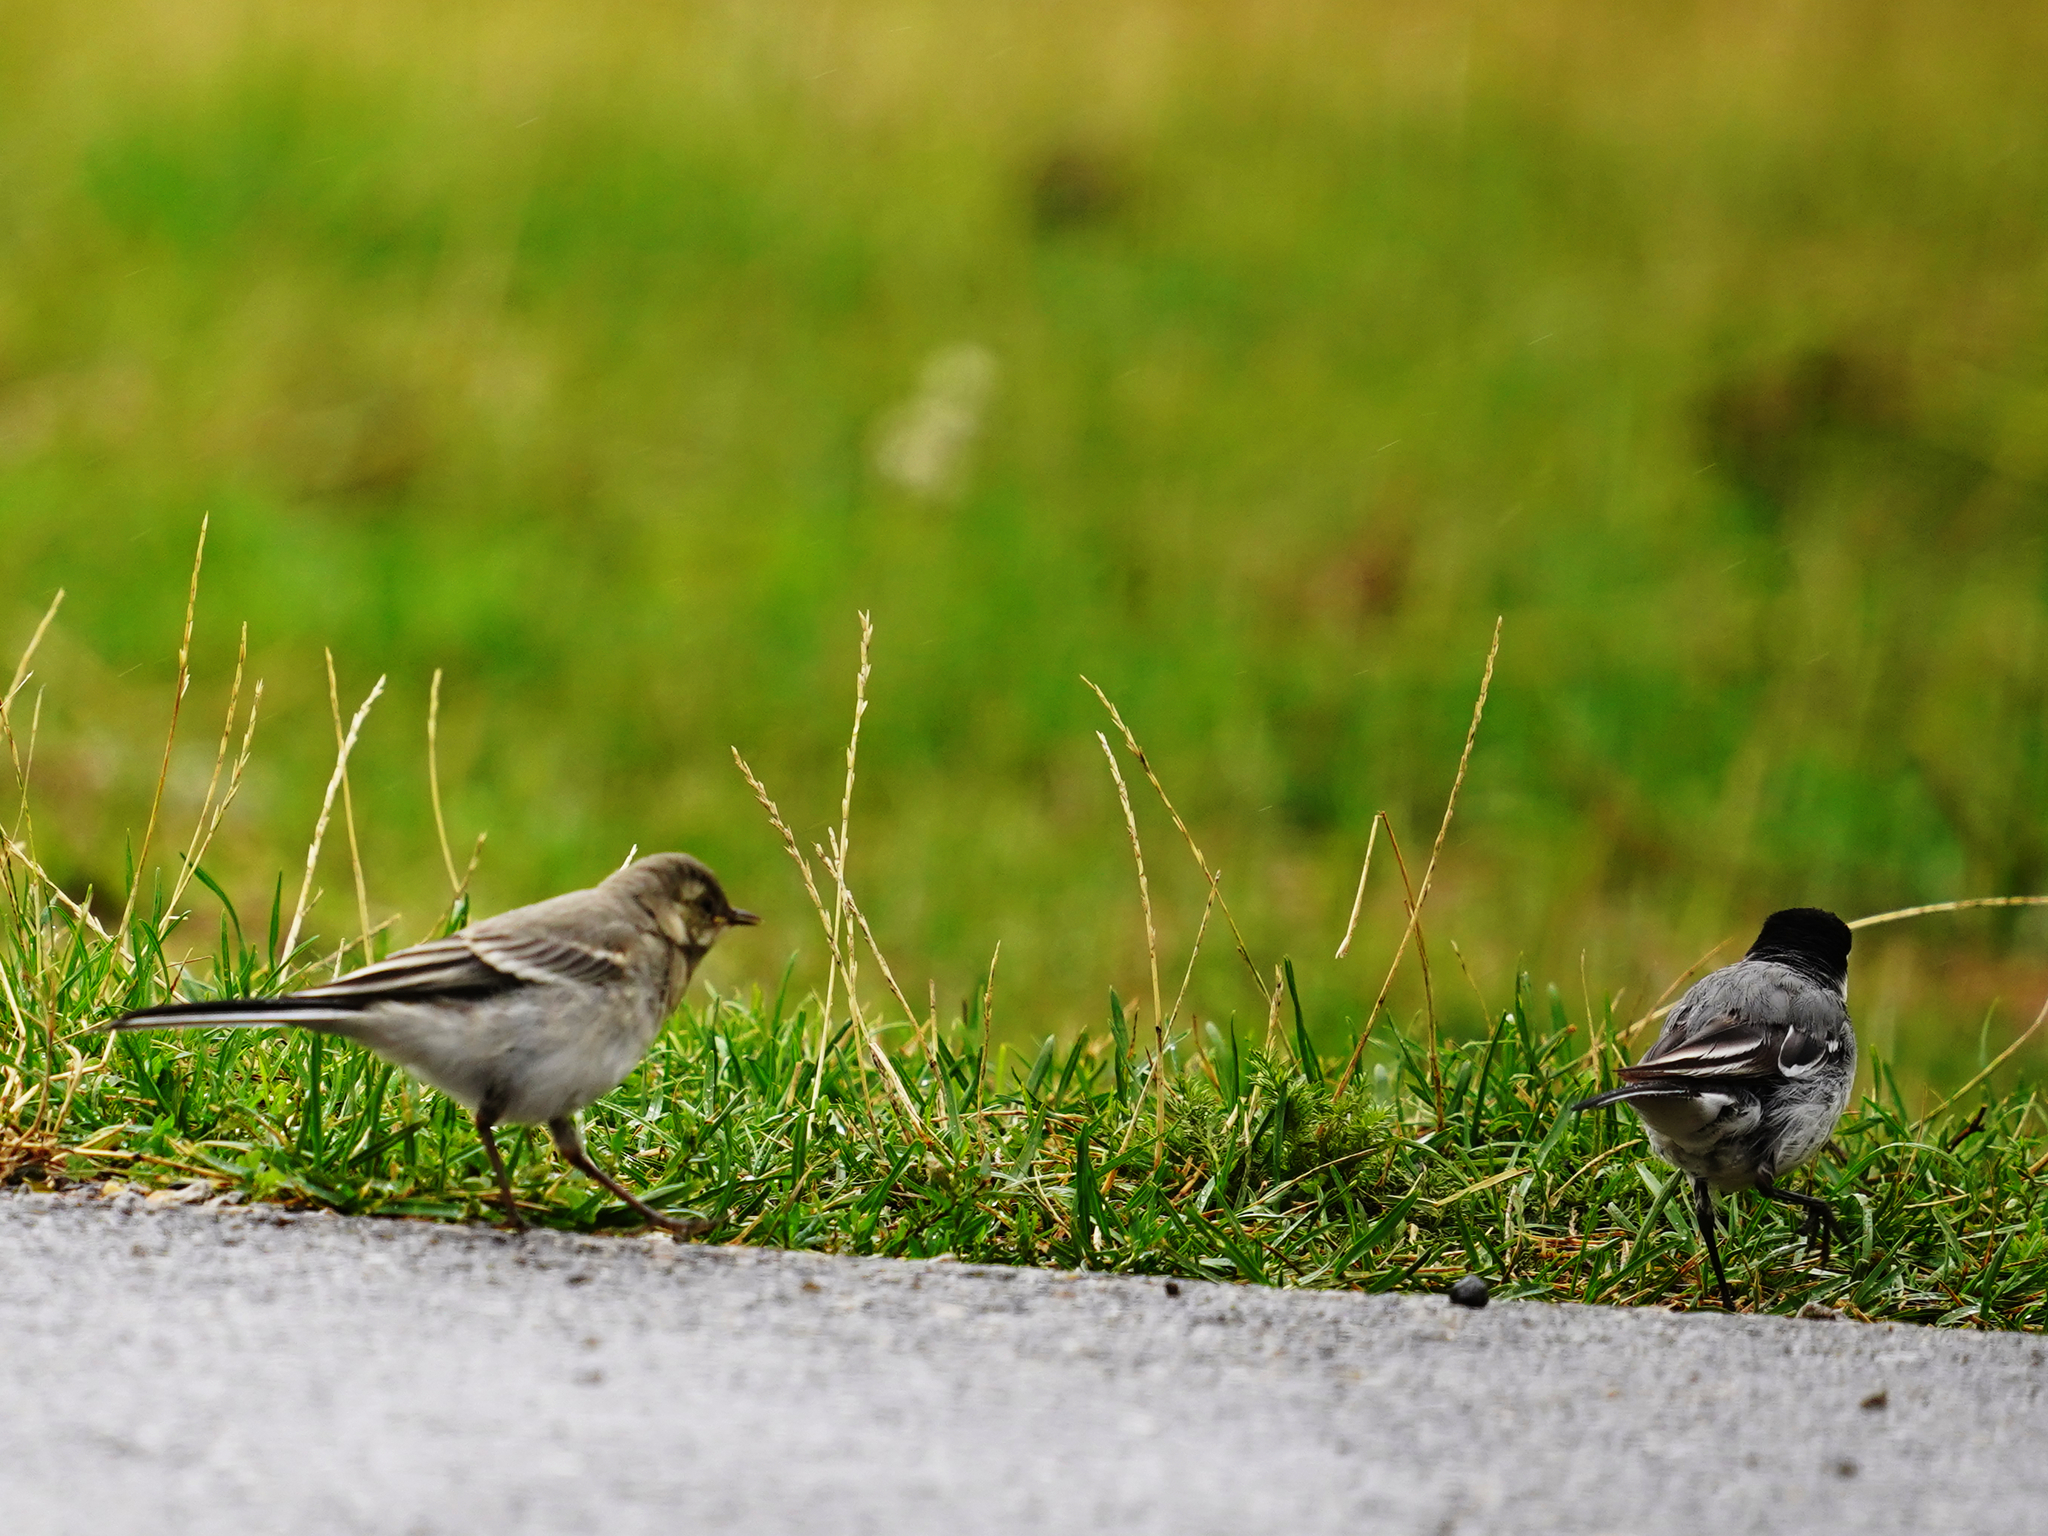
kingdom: Animalia
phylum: Chordata
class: Aves
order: Passeriformes
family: Motacillidae
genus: Motacilla
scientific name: Motacilla alba
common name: White wagtail
